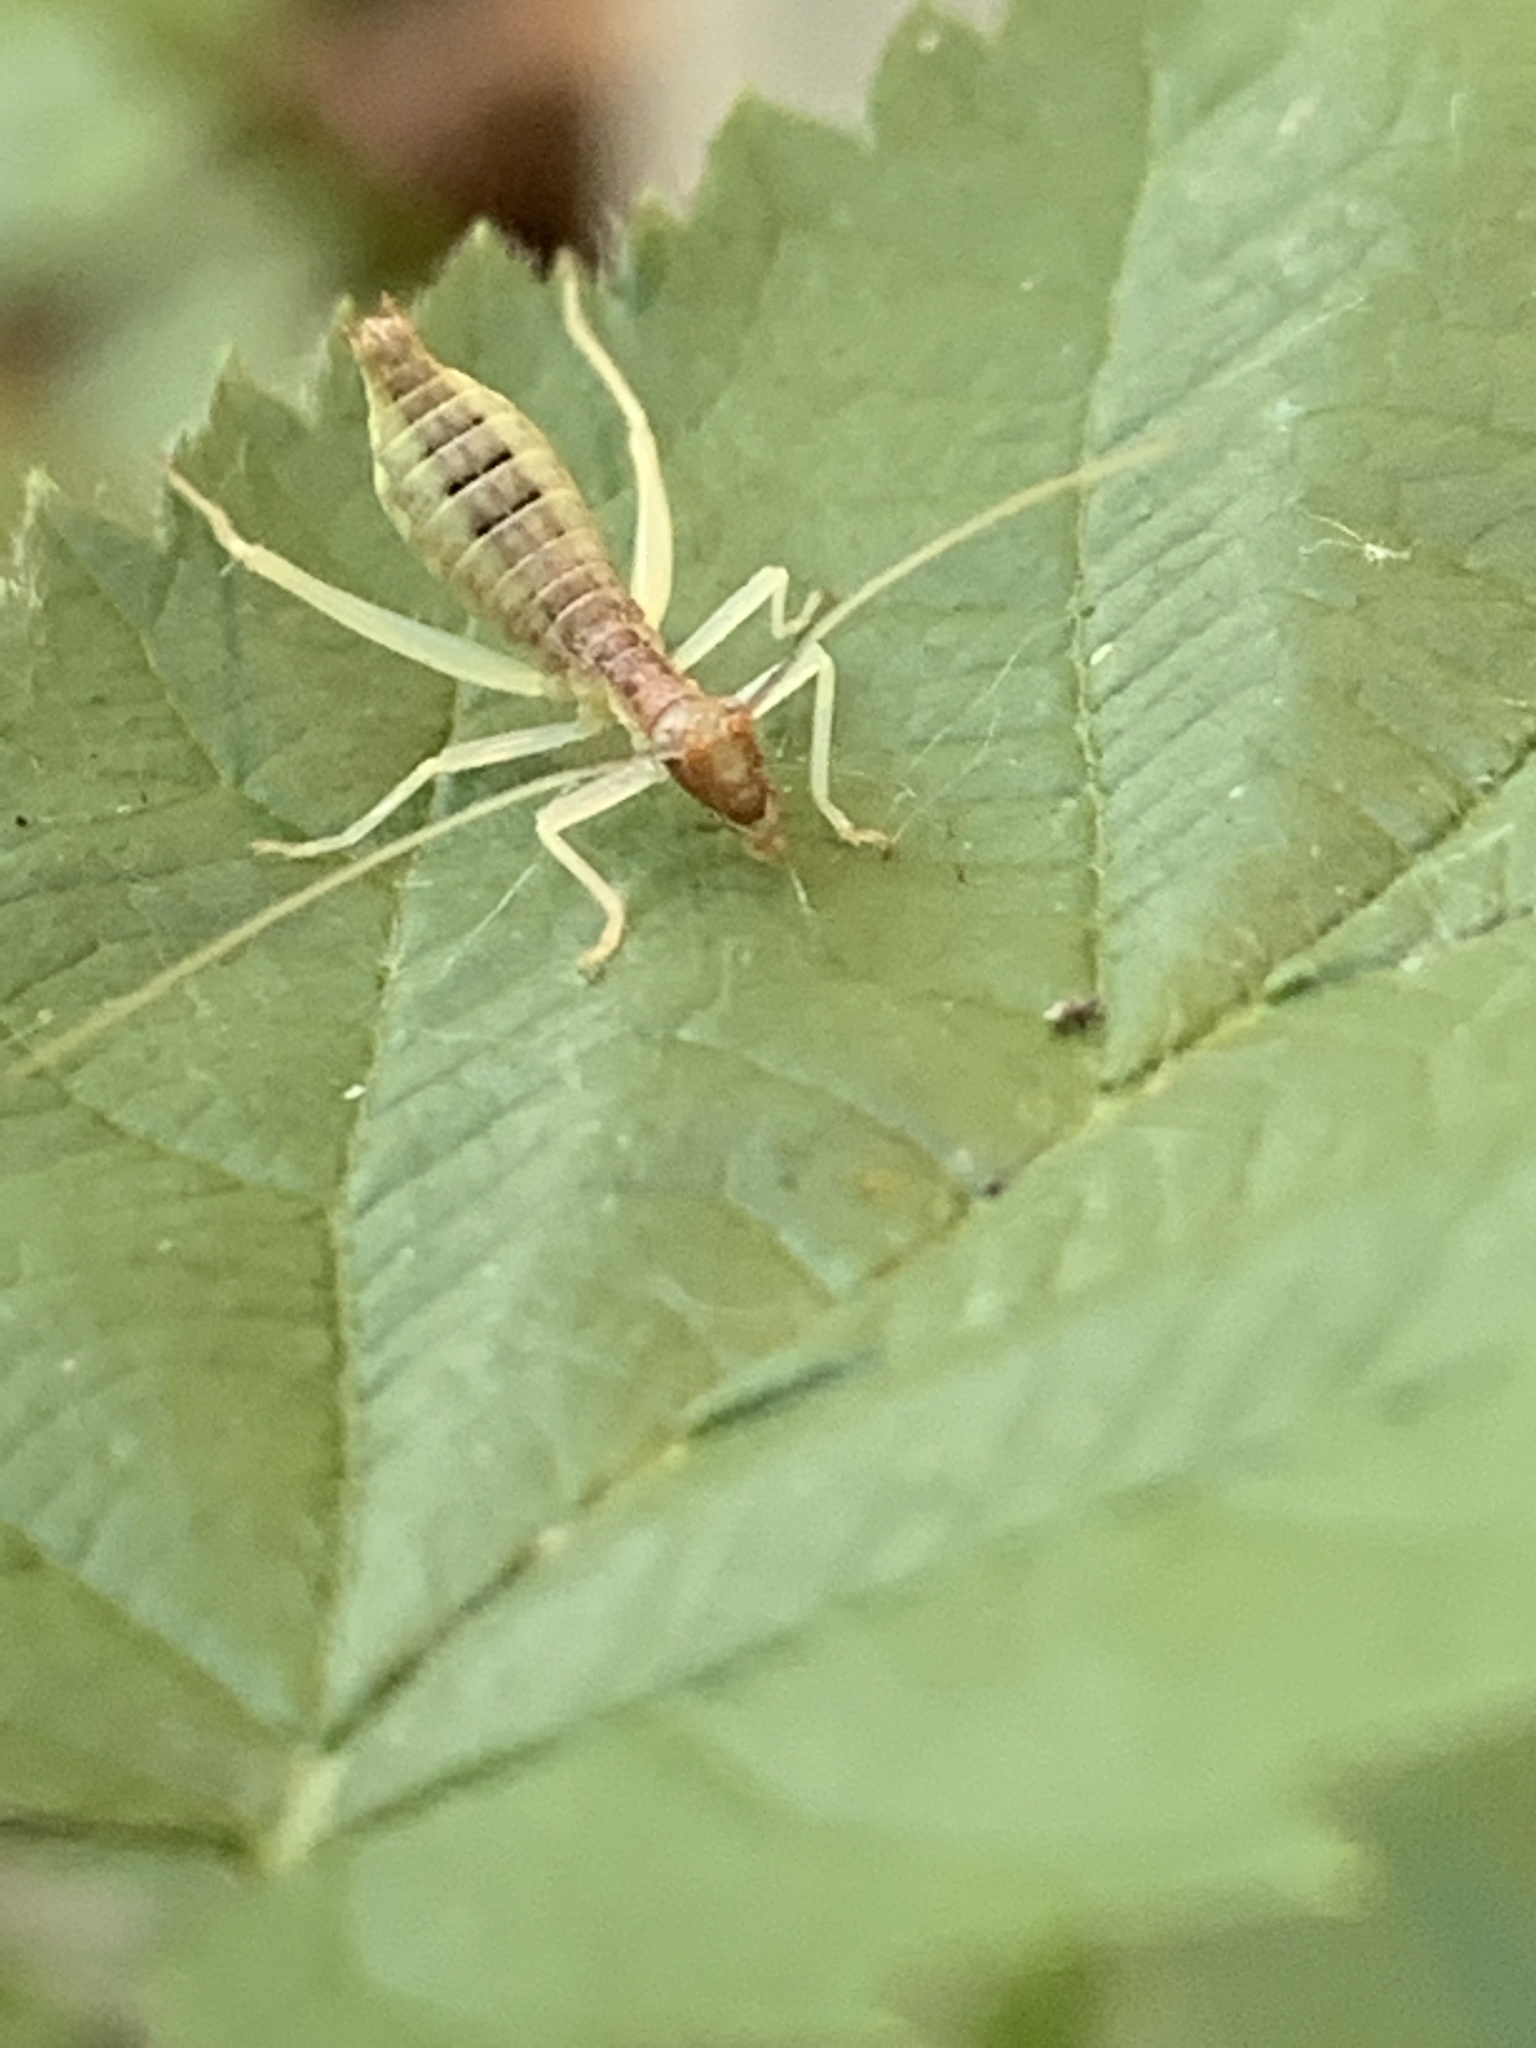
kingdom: Animalia
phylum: Arthropoda
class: Insecta
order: Orthoptera
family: Gryllidae
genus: Neoxabea
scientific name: Neoxabea bipunctata
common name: Two-spotted tree cricket
